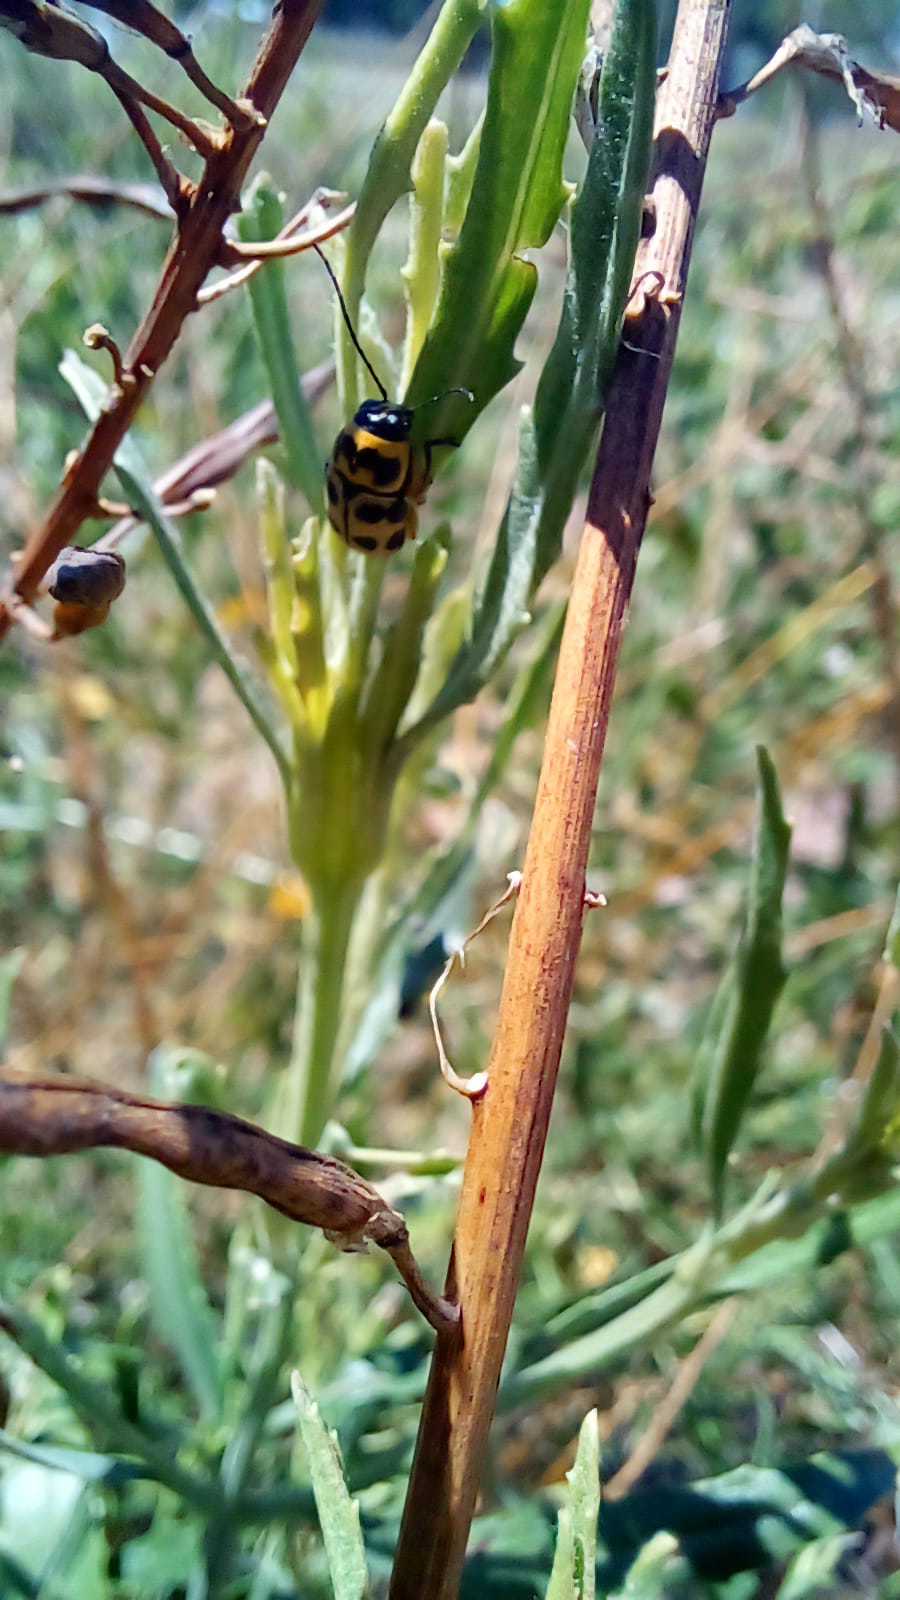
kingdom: Animalia
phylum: Arthropoda
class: Insecta
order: Coleoptera
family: Chrysomelidae
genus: Metallactus
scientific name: Metallactus pollens
